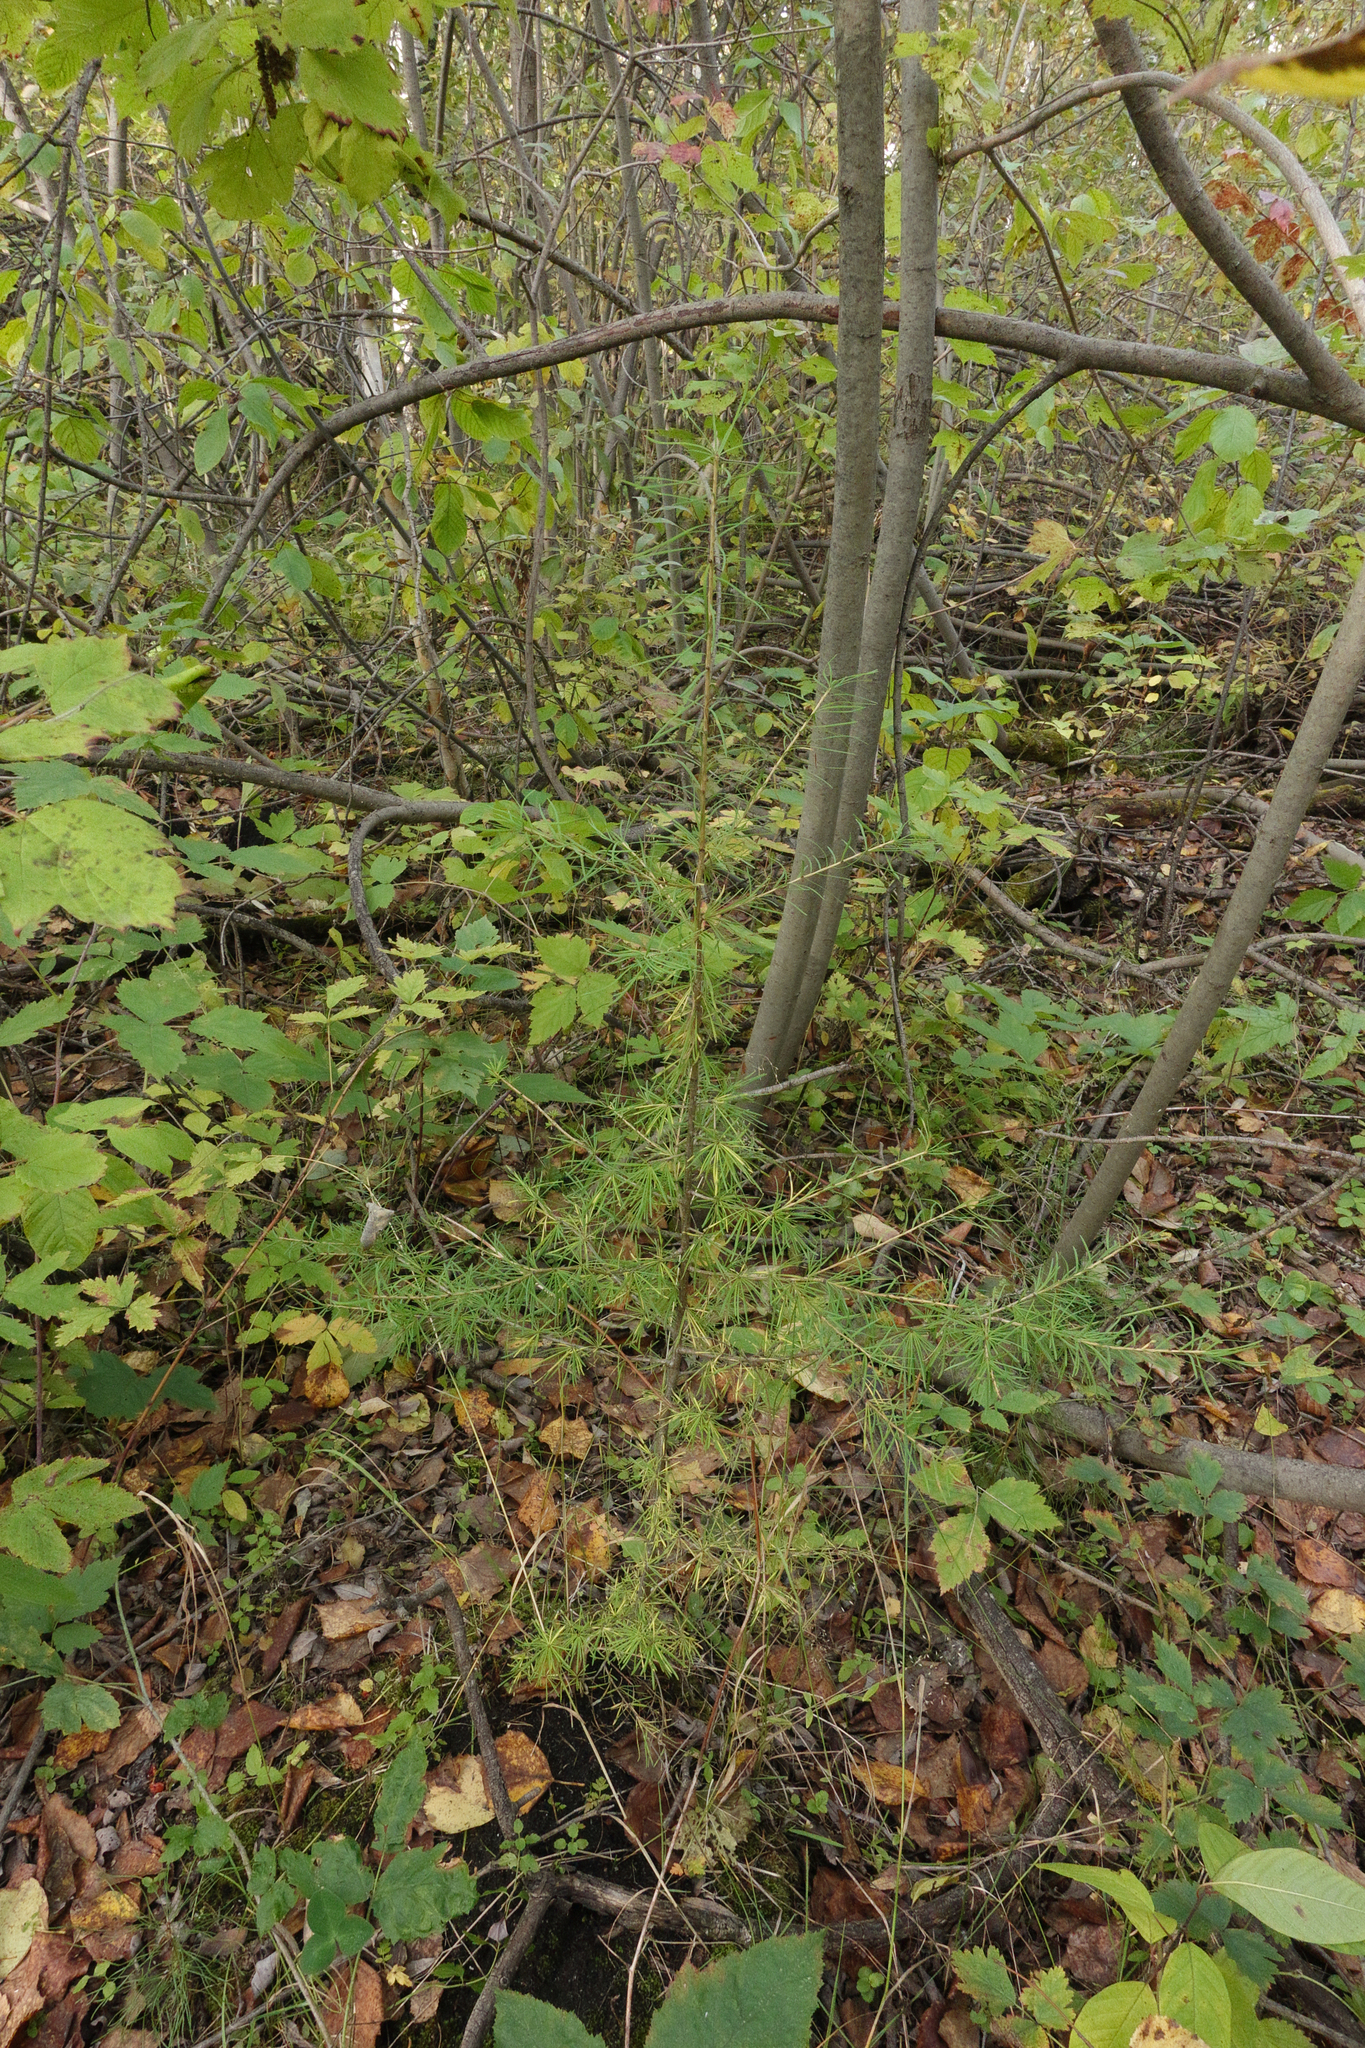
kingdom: Plantae
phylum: Tracheophyta
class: Pinopsida
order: Pinales
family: Pinaceae
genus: Larix
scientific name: Larix sibirica
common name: Siberian larch
